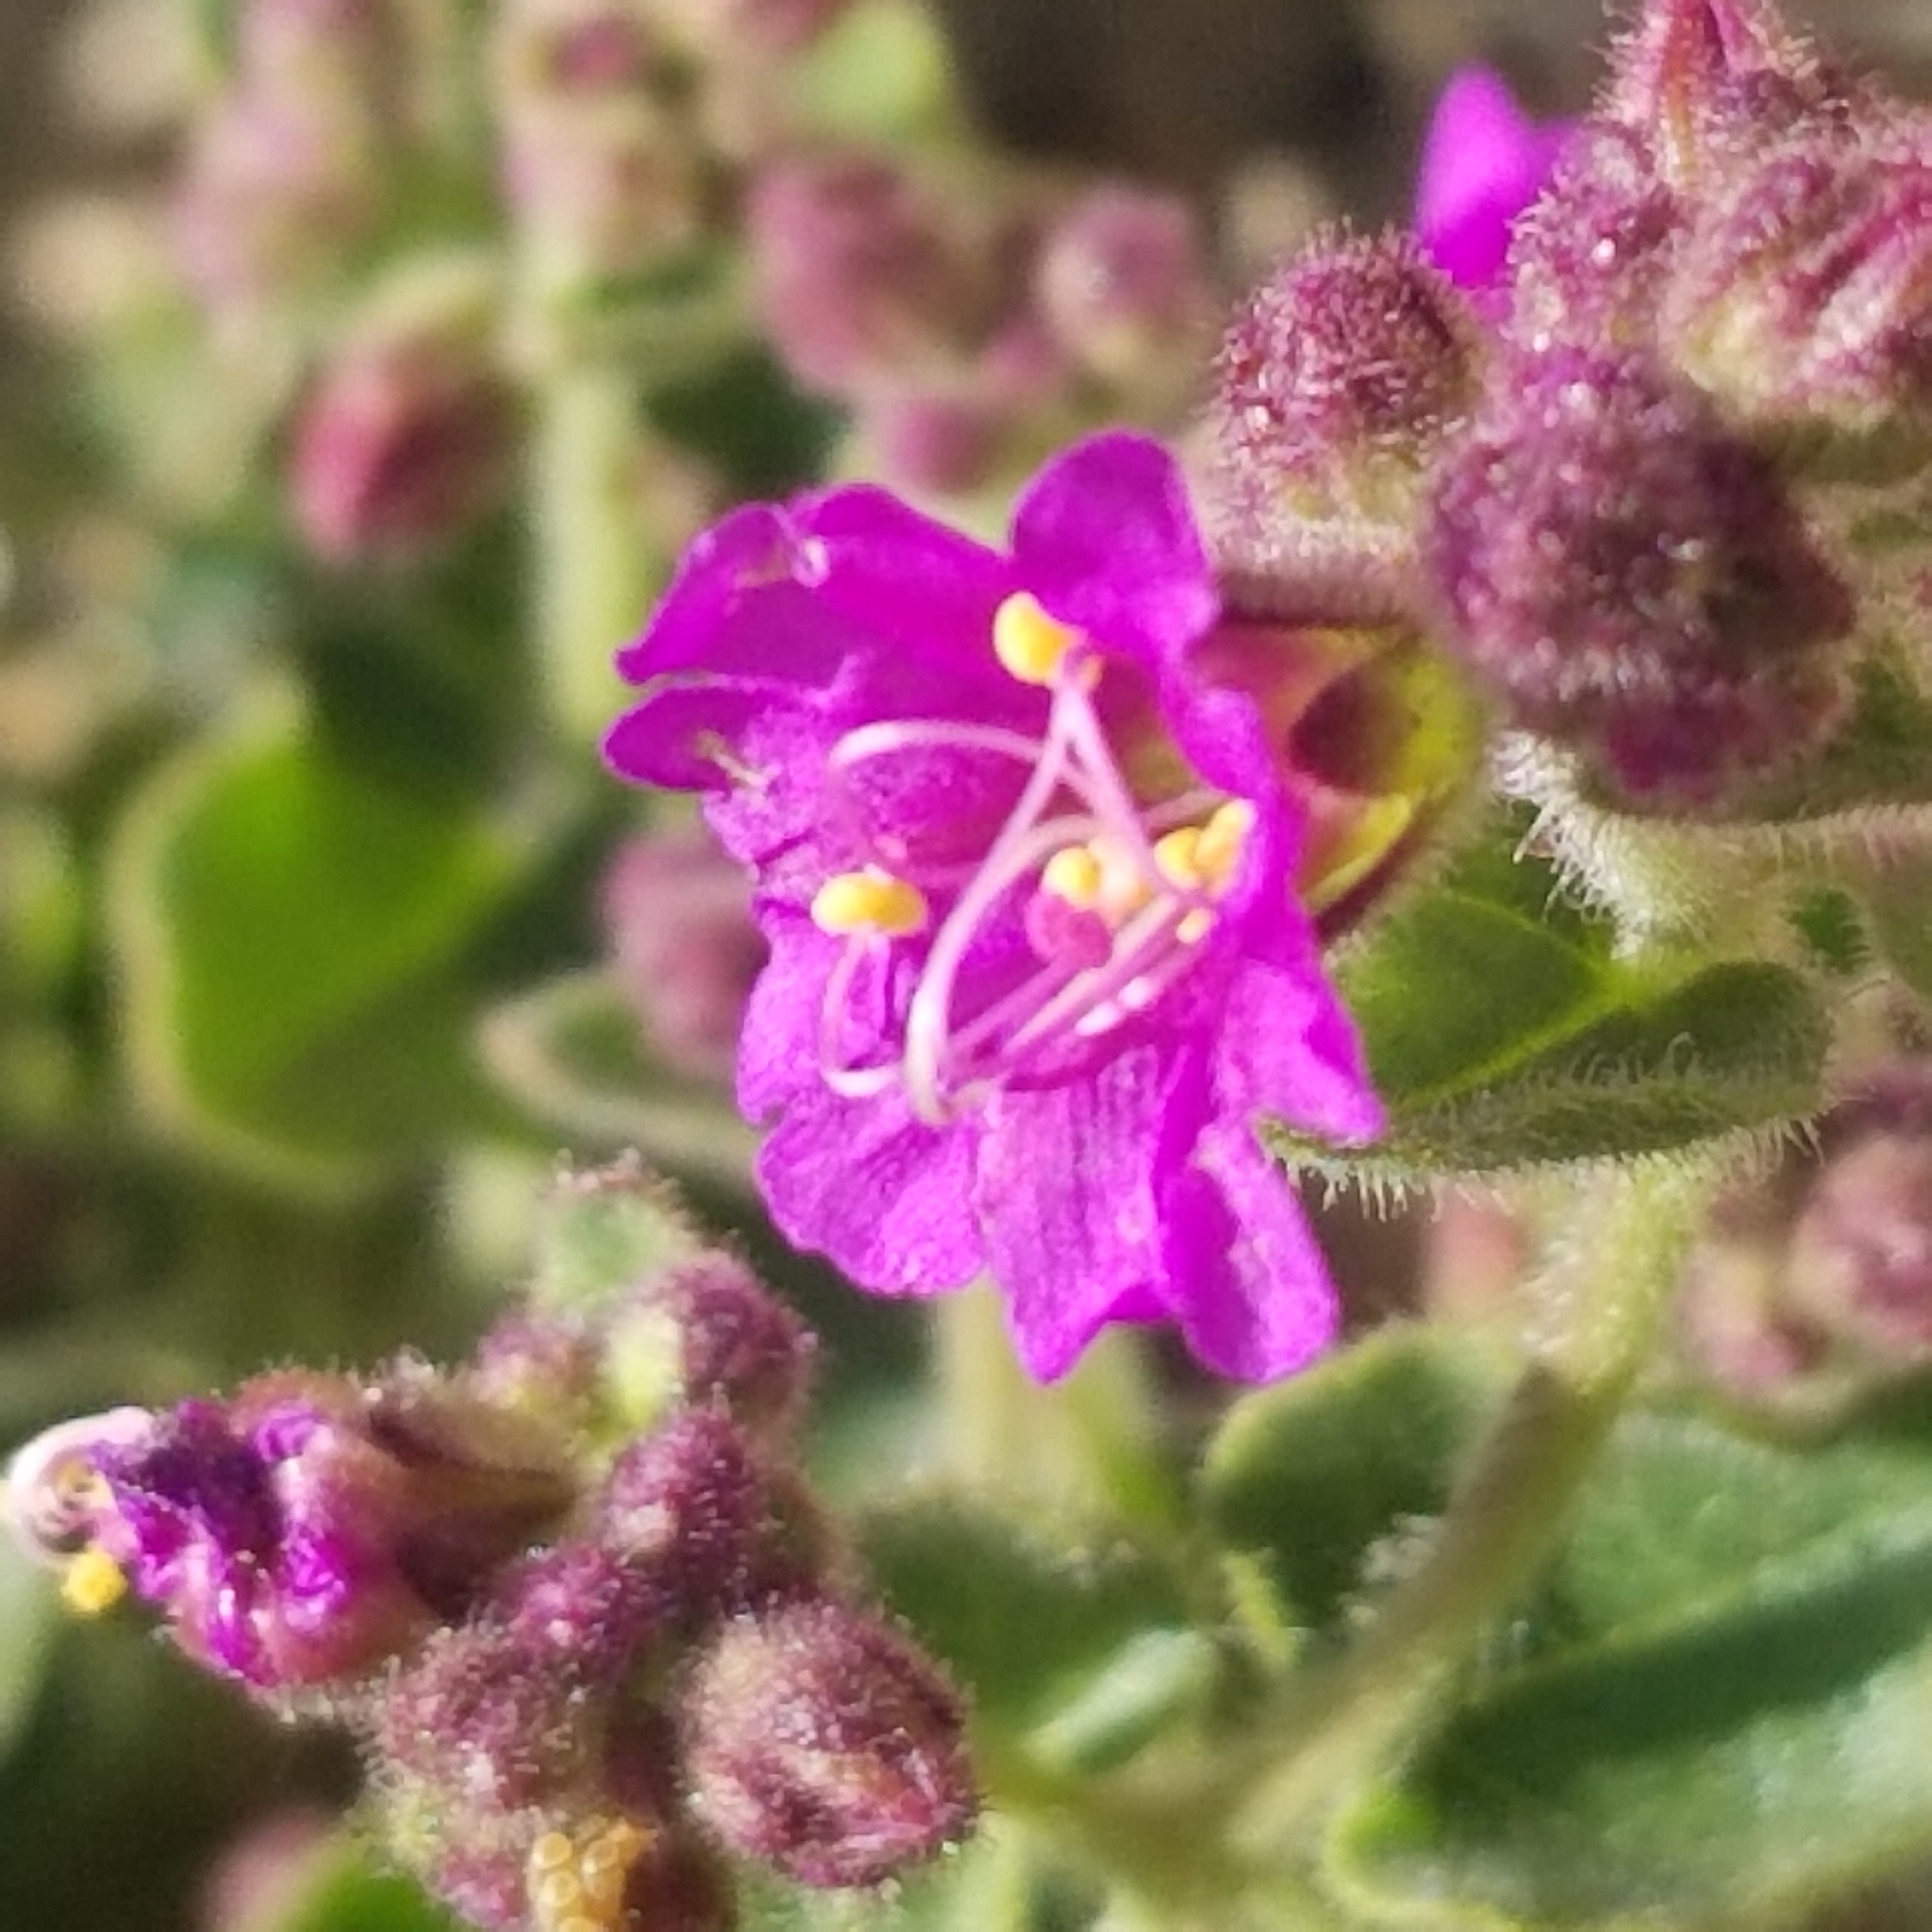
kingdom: Plantae
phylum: Tracheophyta
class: Magnoliopsida
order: Caryophyllales
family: Nyctaginaceae
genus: Mirabilis
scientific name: Mirabilis laevis
